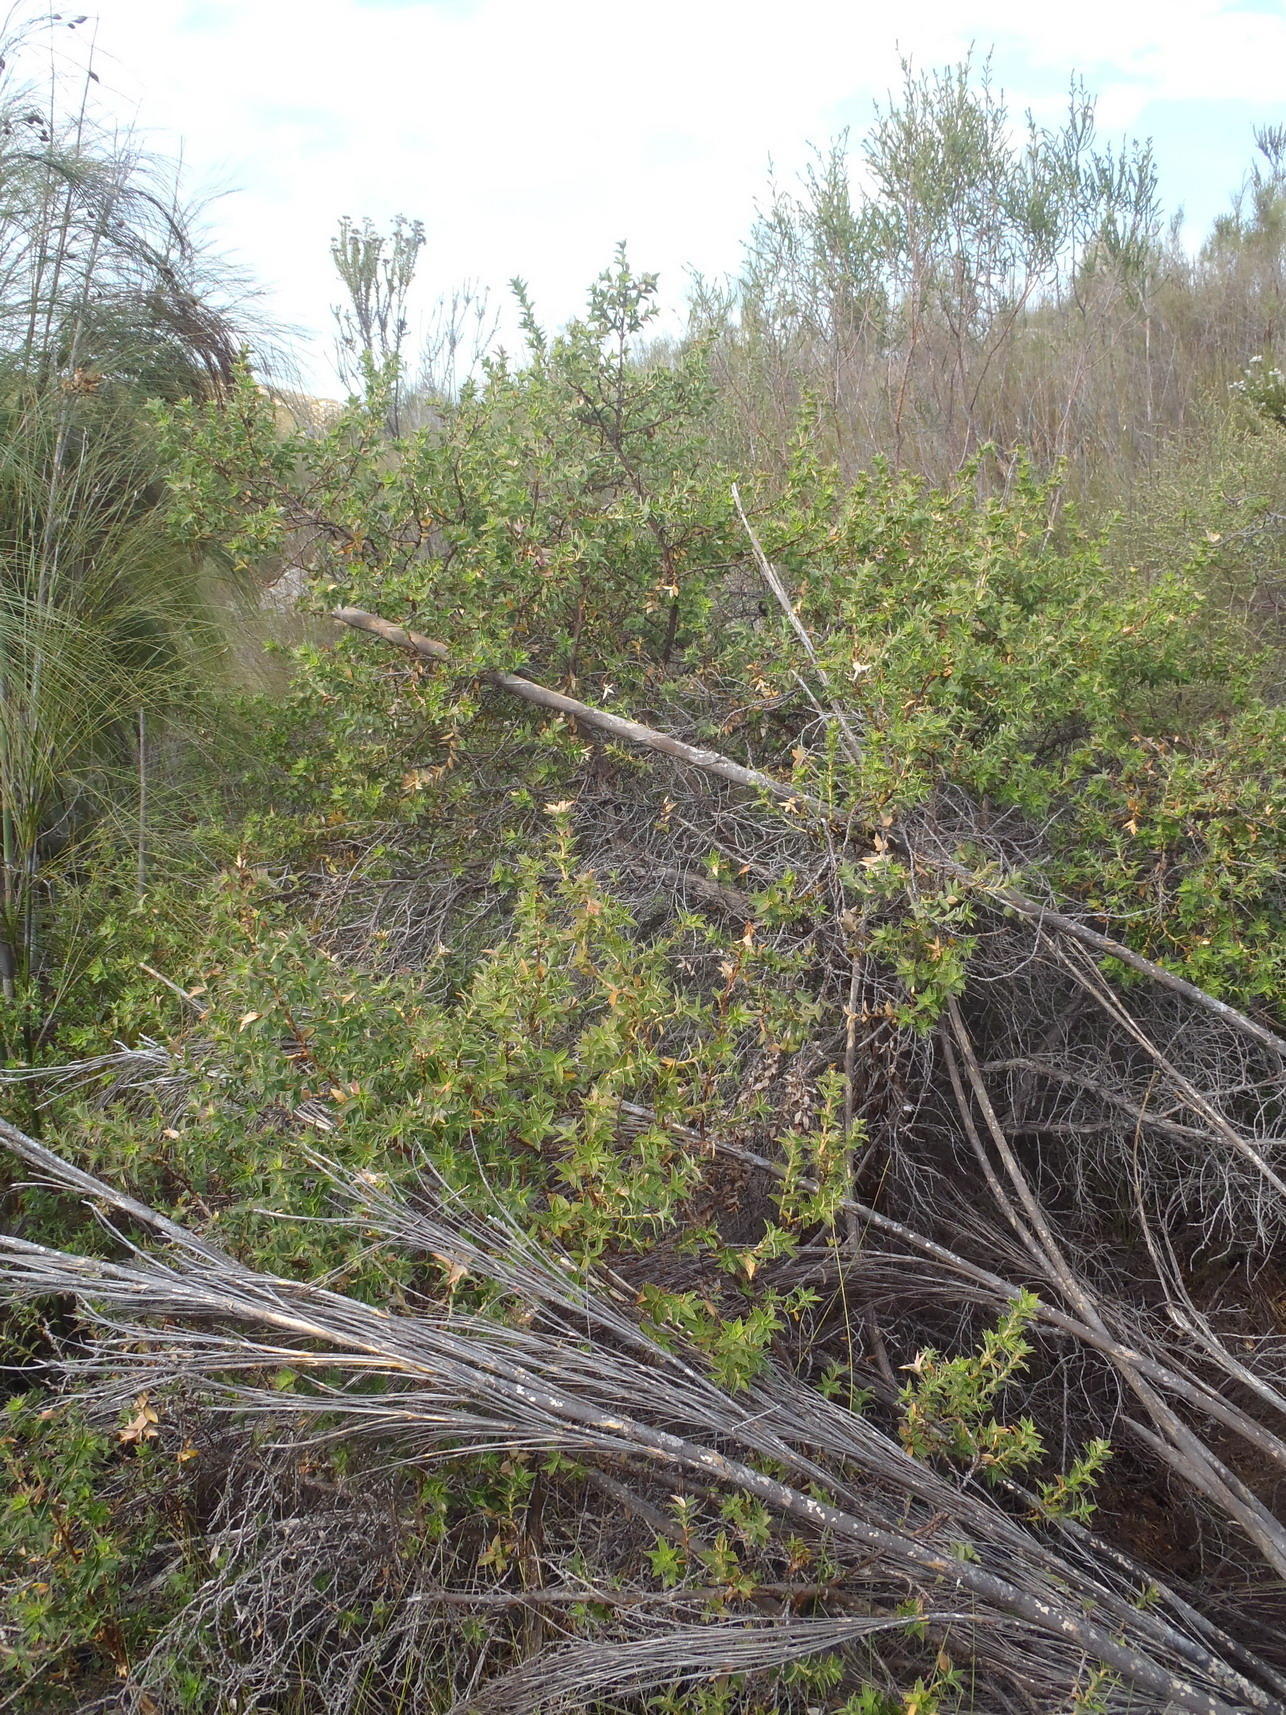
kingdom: Plantae
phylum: Tracheophyta
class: Magnoliopsida
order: Rosales
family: Rosaceae
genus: Cliffortia
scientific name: Cliffortia ilicifolia
